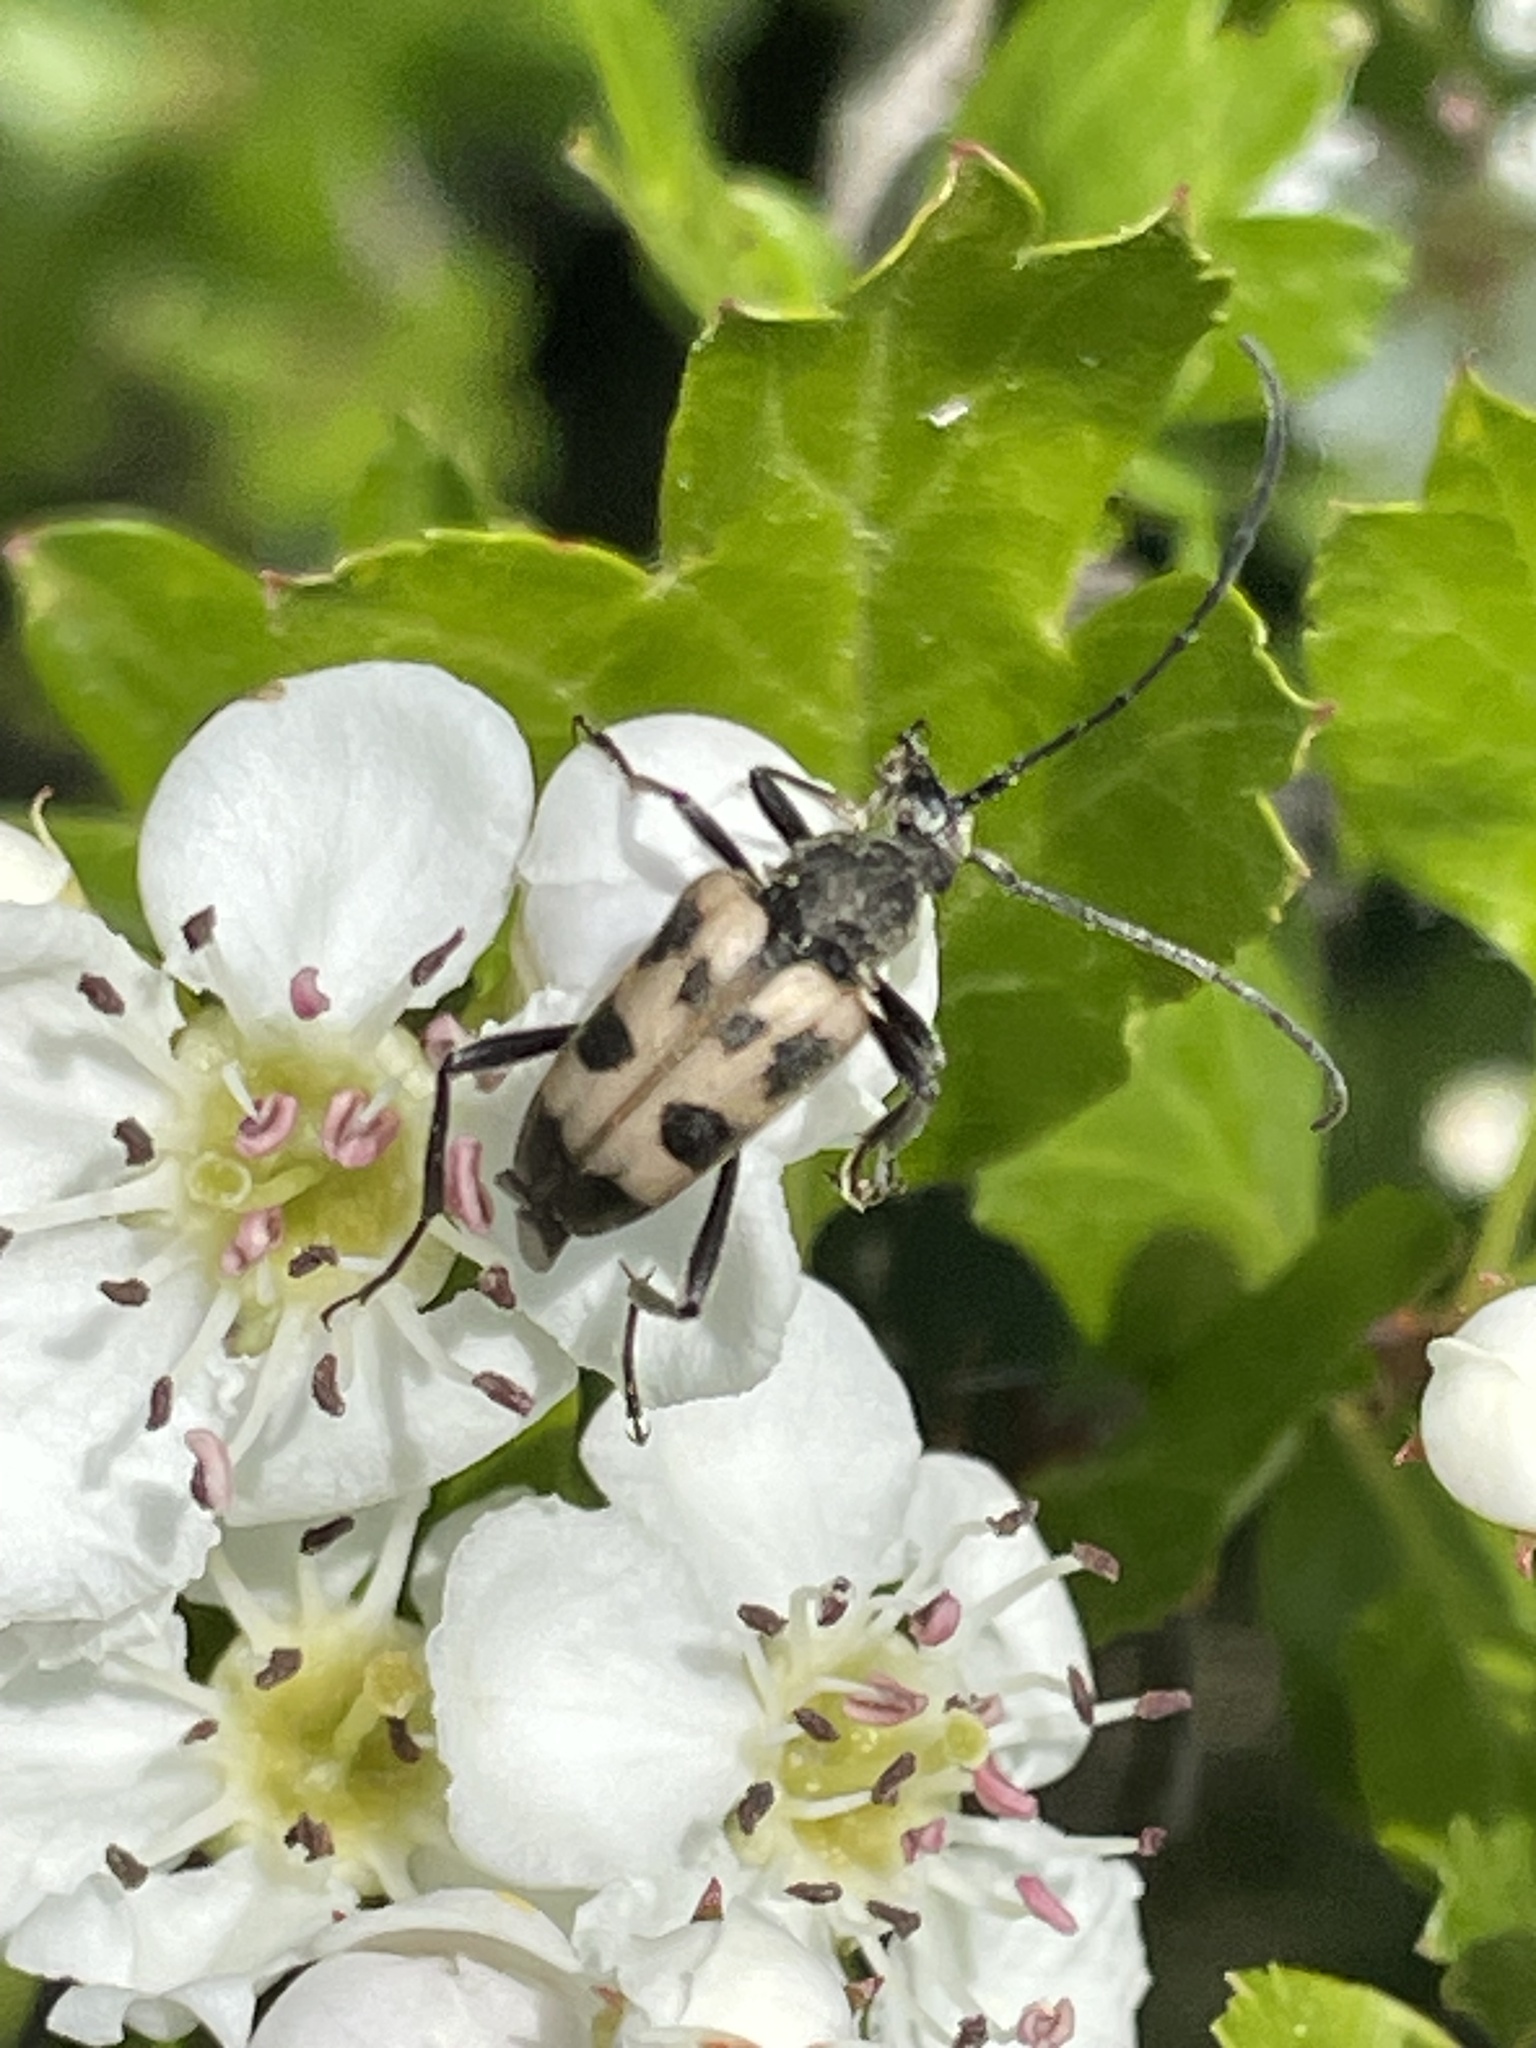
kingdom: Animalia
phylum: Arthropoda
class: Insecta
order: Coleoptera
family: Cerambycidae
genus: Pachytodes
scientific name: Pachytodes cerambyciformis
